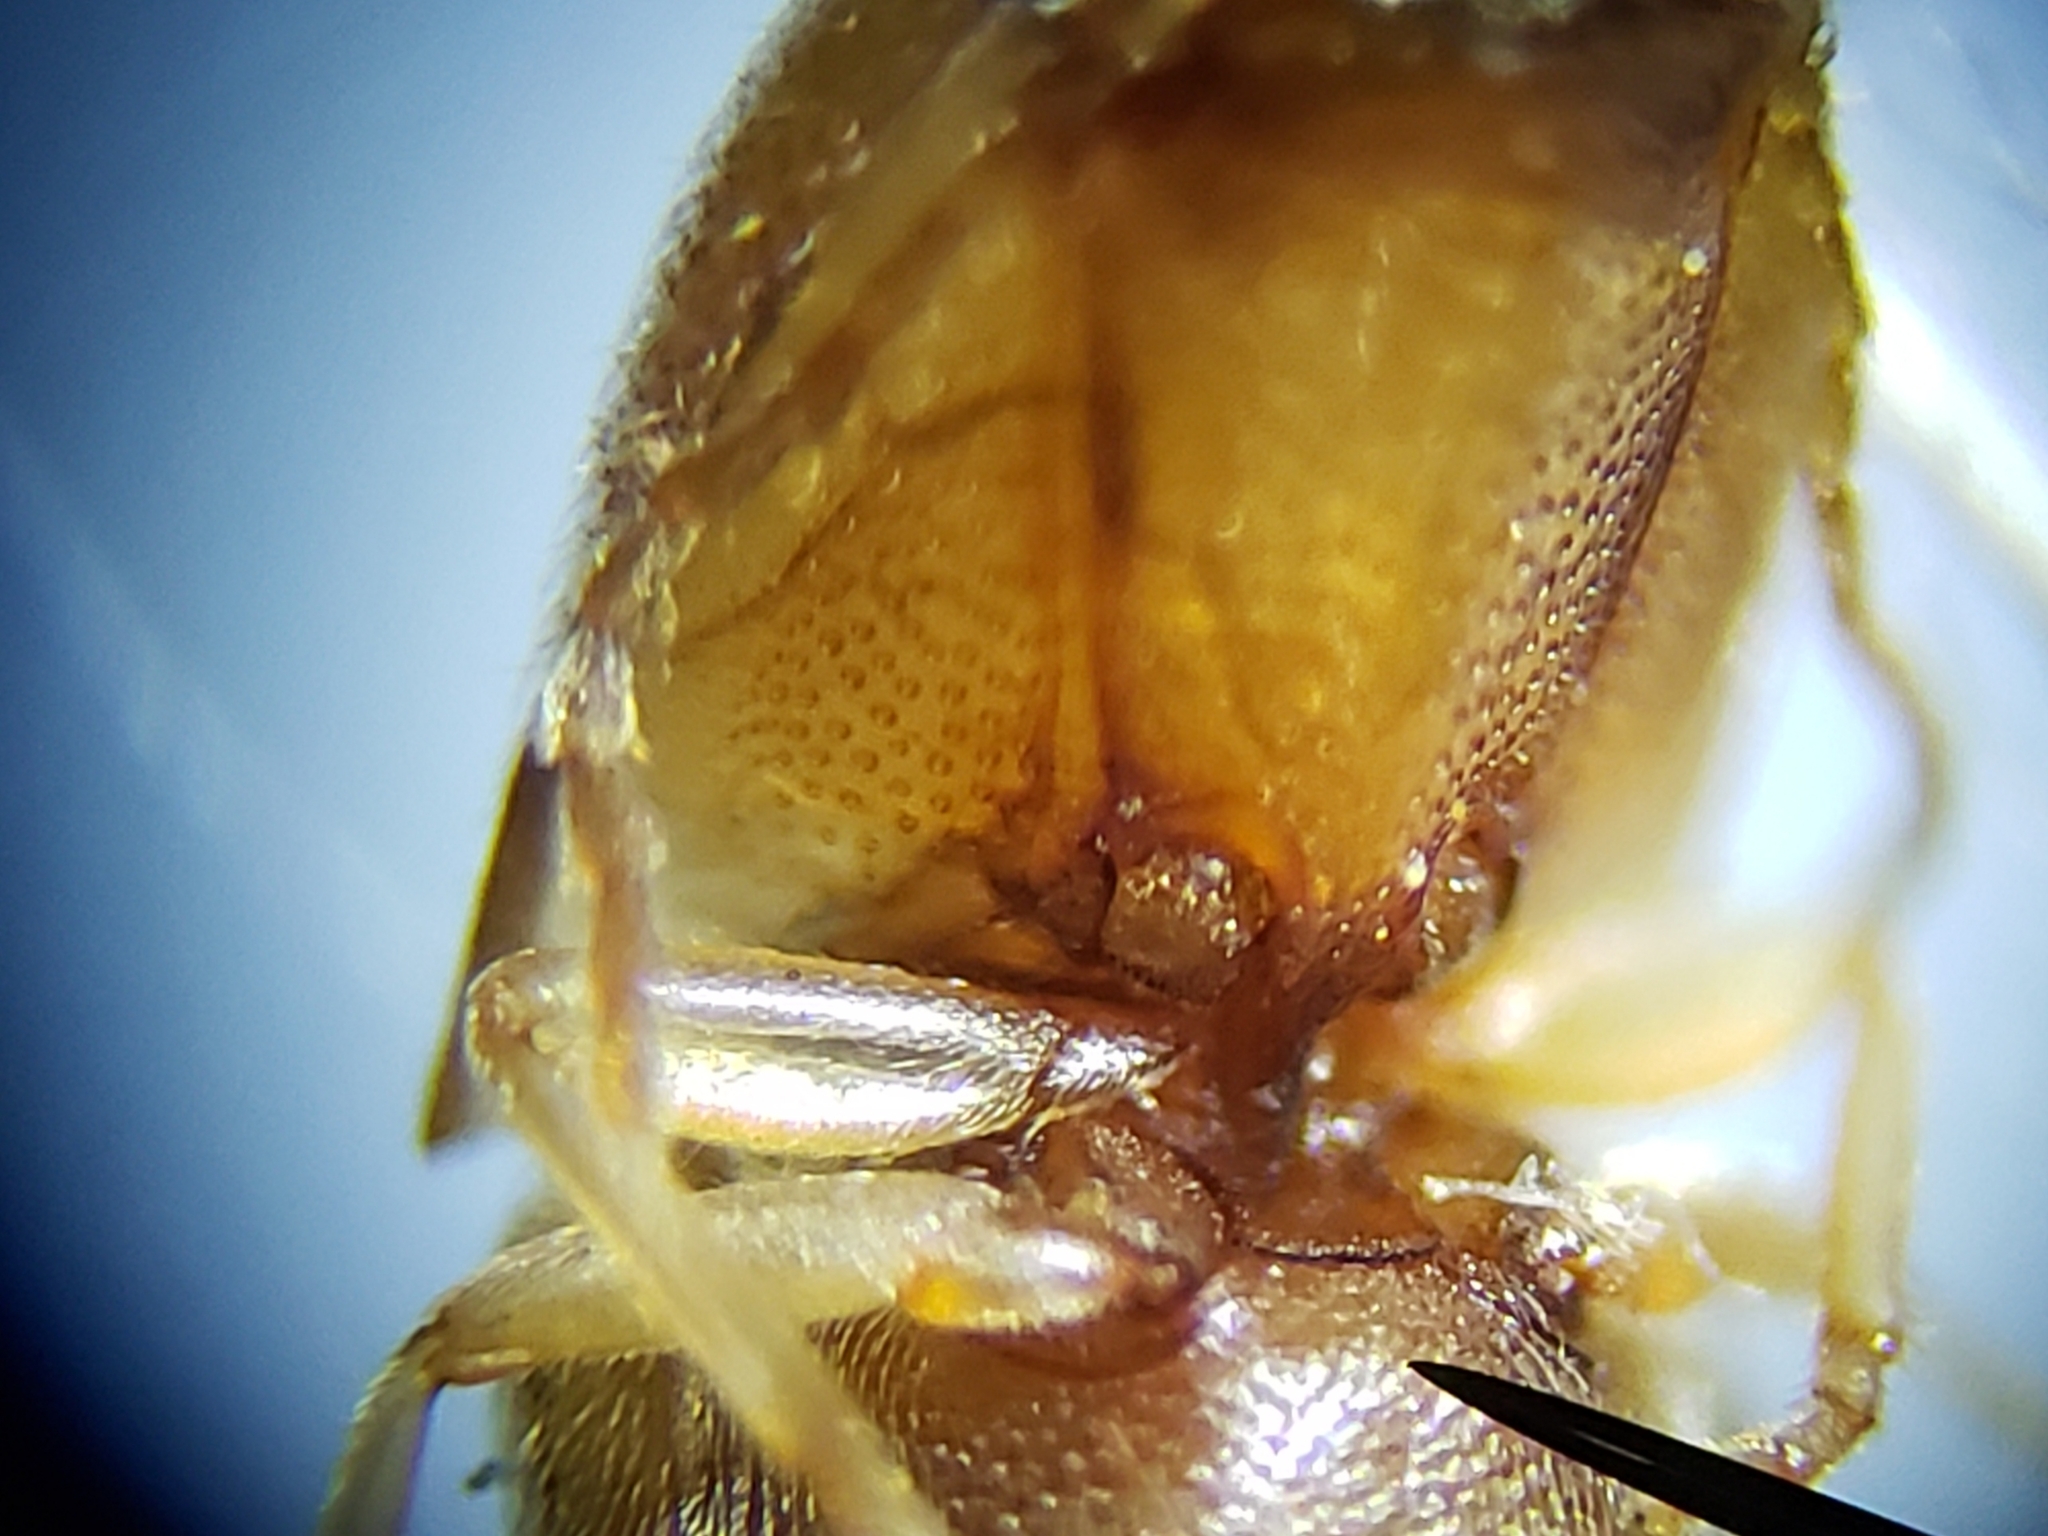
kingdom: Animalia
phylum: Arthropoda
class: Insecta
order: Coleoptera
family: Elateridae
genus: Monocrepidius
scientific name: Monocrepidius
